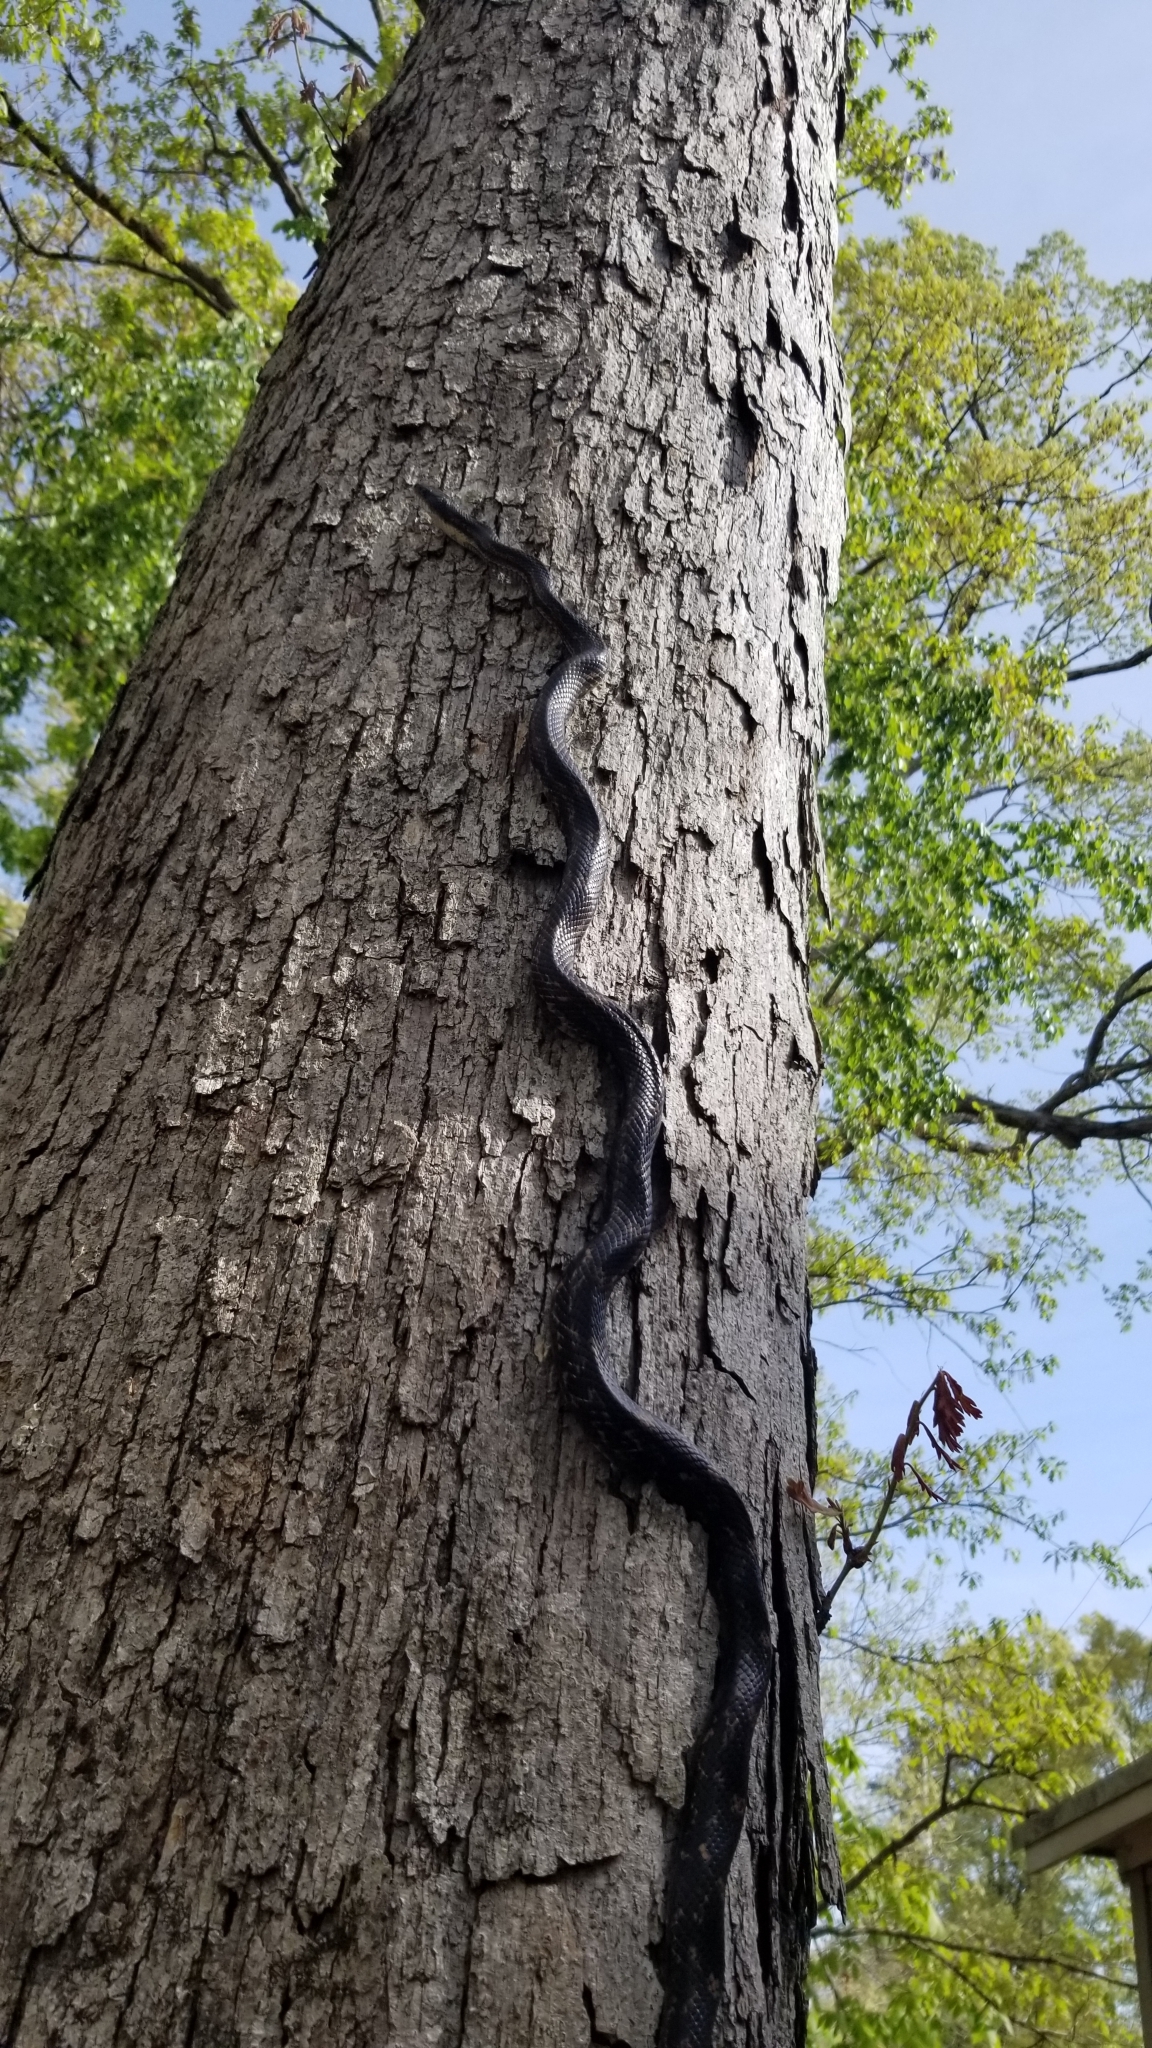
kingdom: Animalia
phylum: Chordata
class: Squamata
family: Colubridae
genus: Pantherophis
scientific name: Pantherophis spiloides
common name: Gray rat snake
